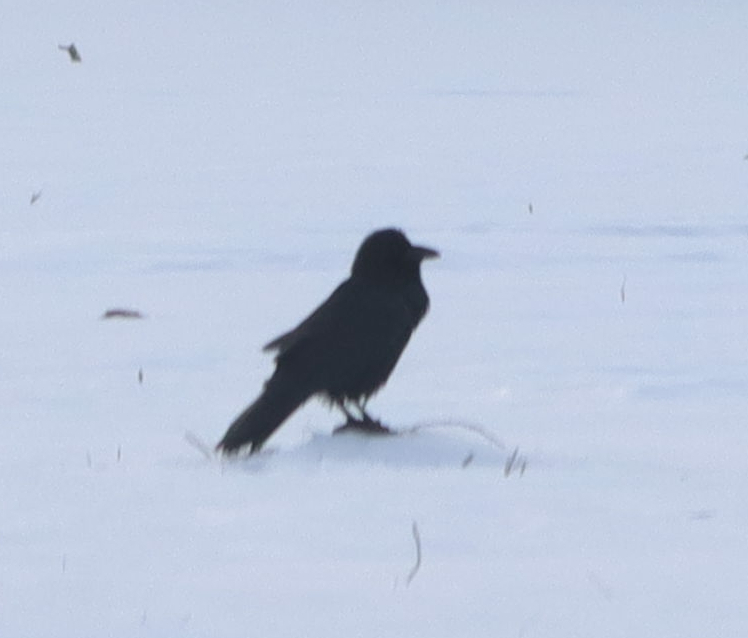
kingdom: Animalia
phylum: Chordata
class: Aves
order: Passeriformes
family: Corvidae
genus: Corvus
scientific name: Corvus corax
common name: Common raven
